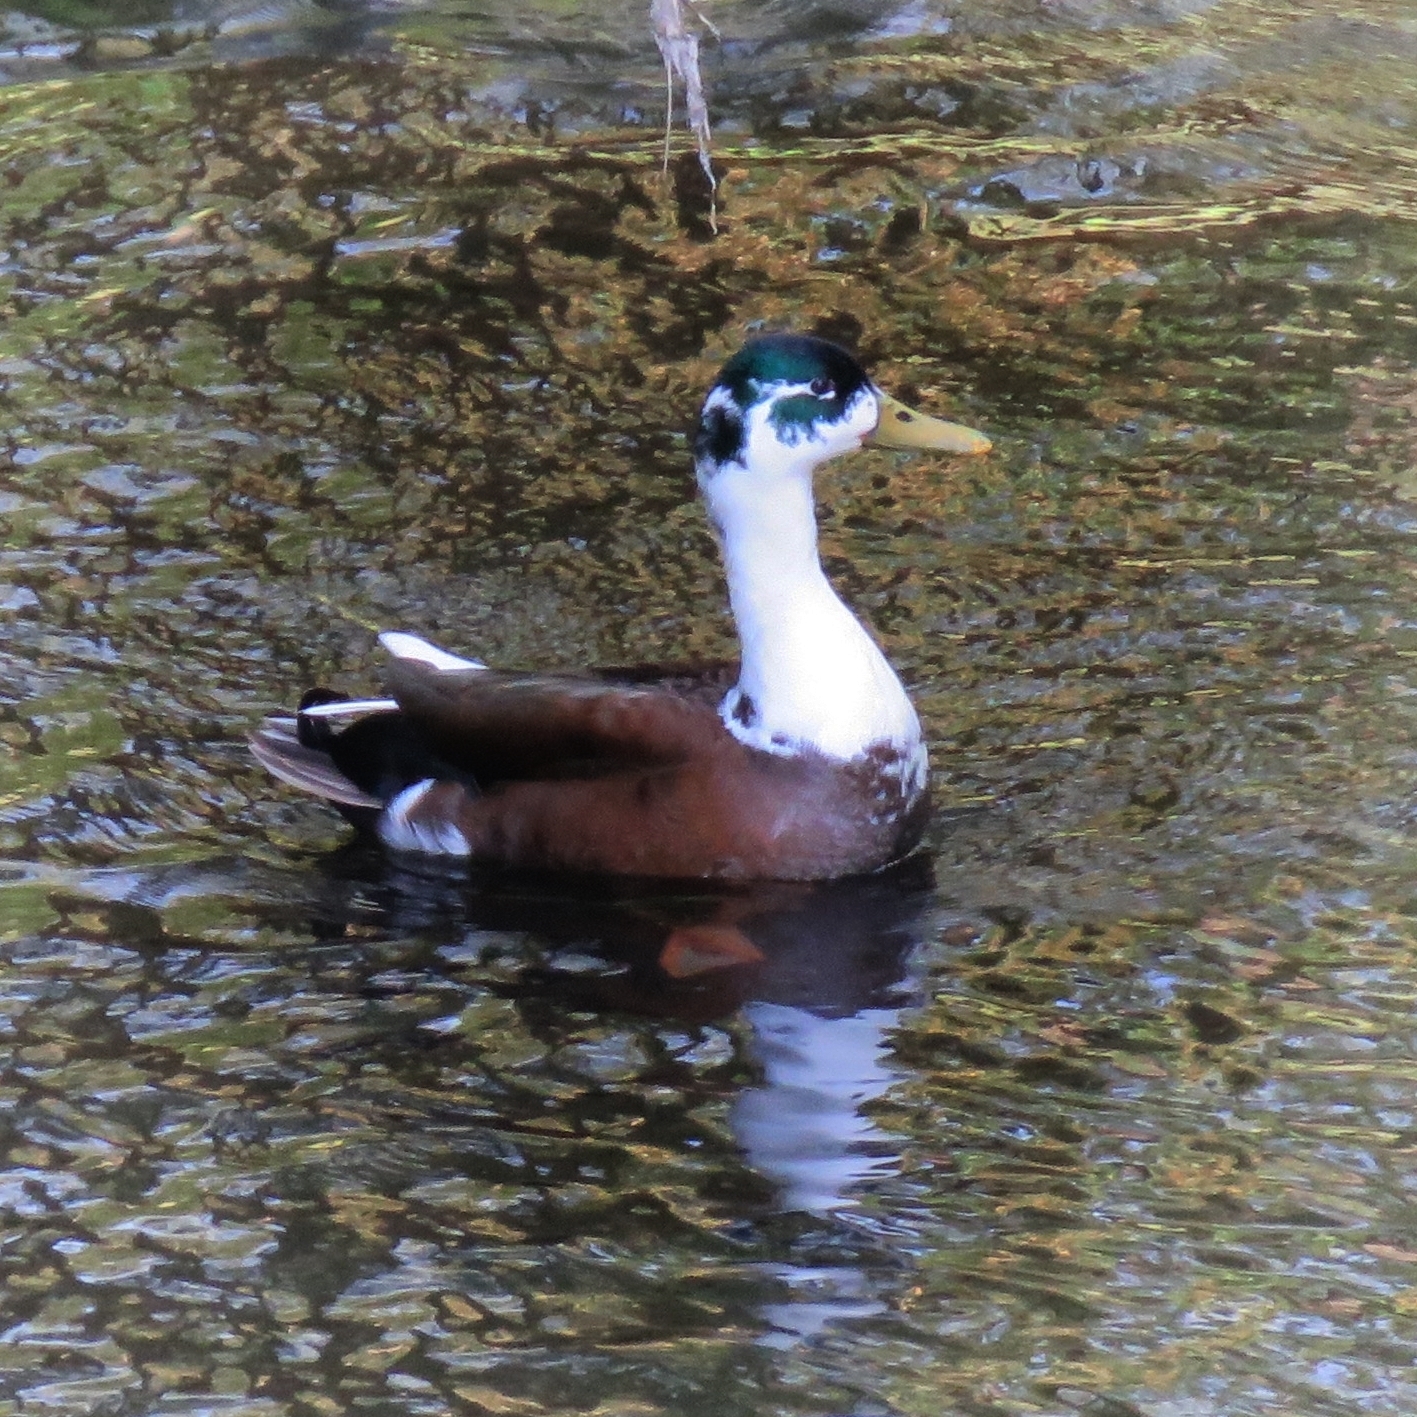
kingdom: Animalia
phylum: Chordata
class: Aves
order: Anseriformes
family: Anatidae
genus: Anas
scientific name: Anas platyrhynchos
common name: Mallard
